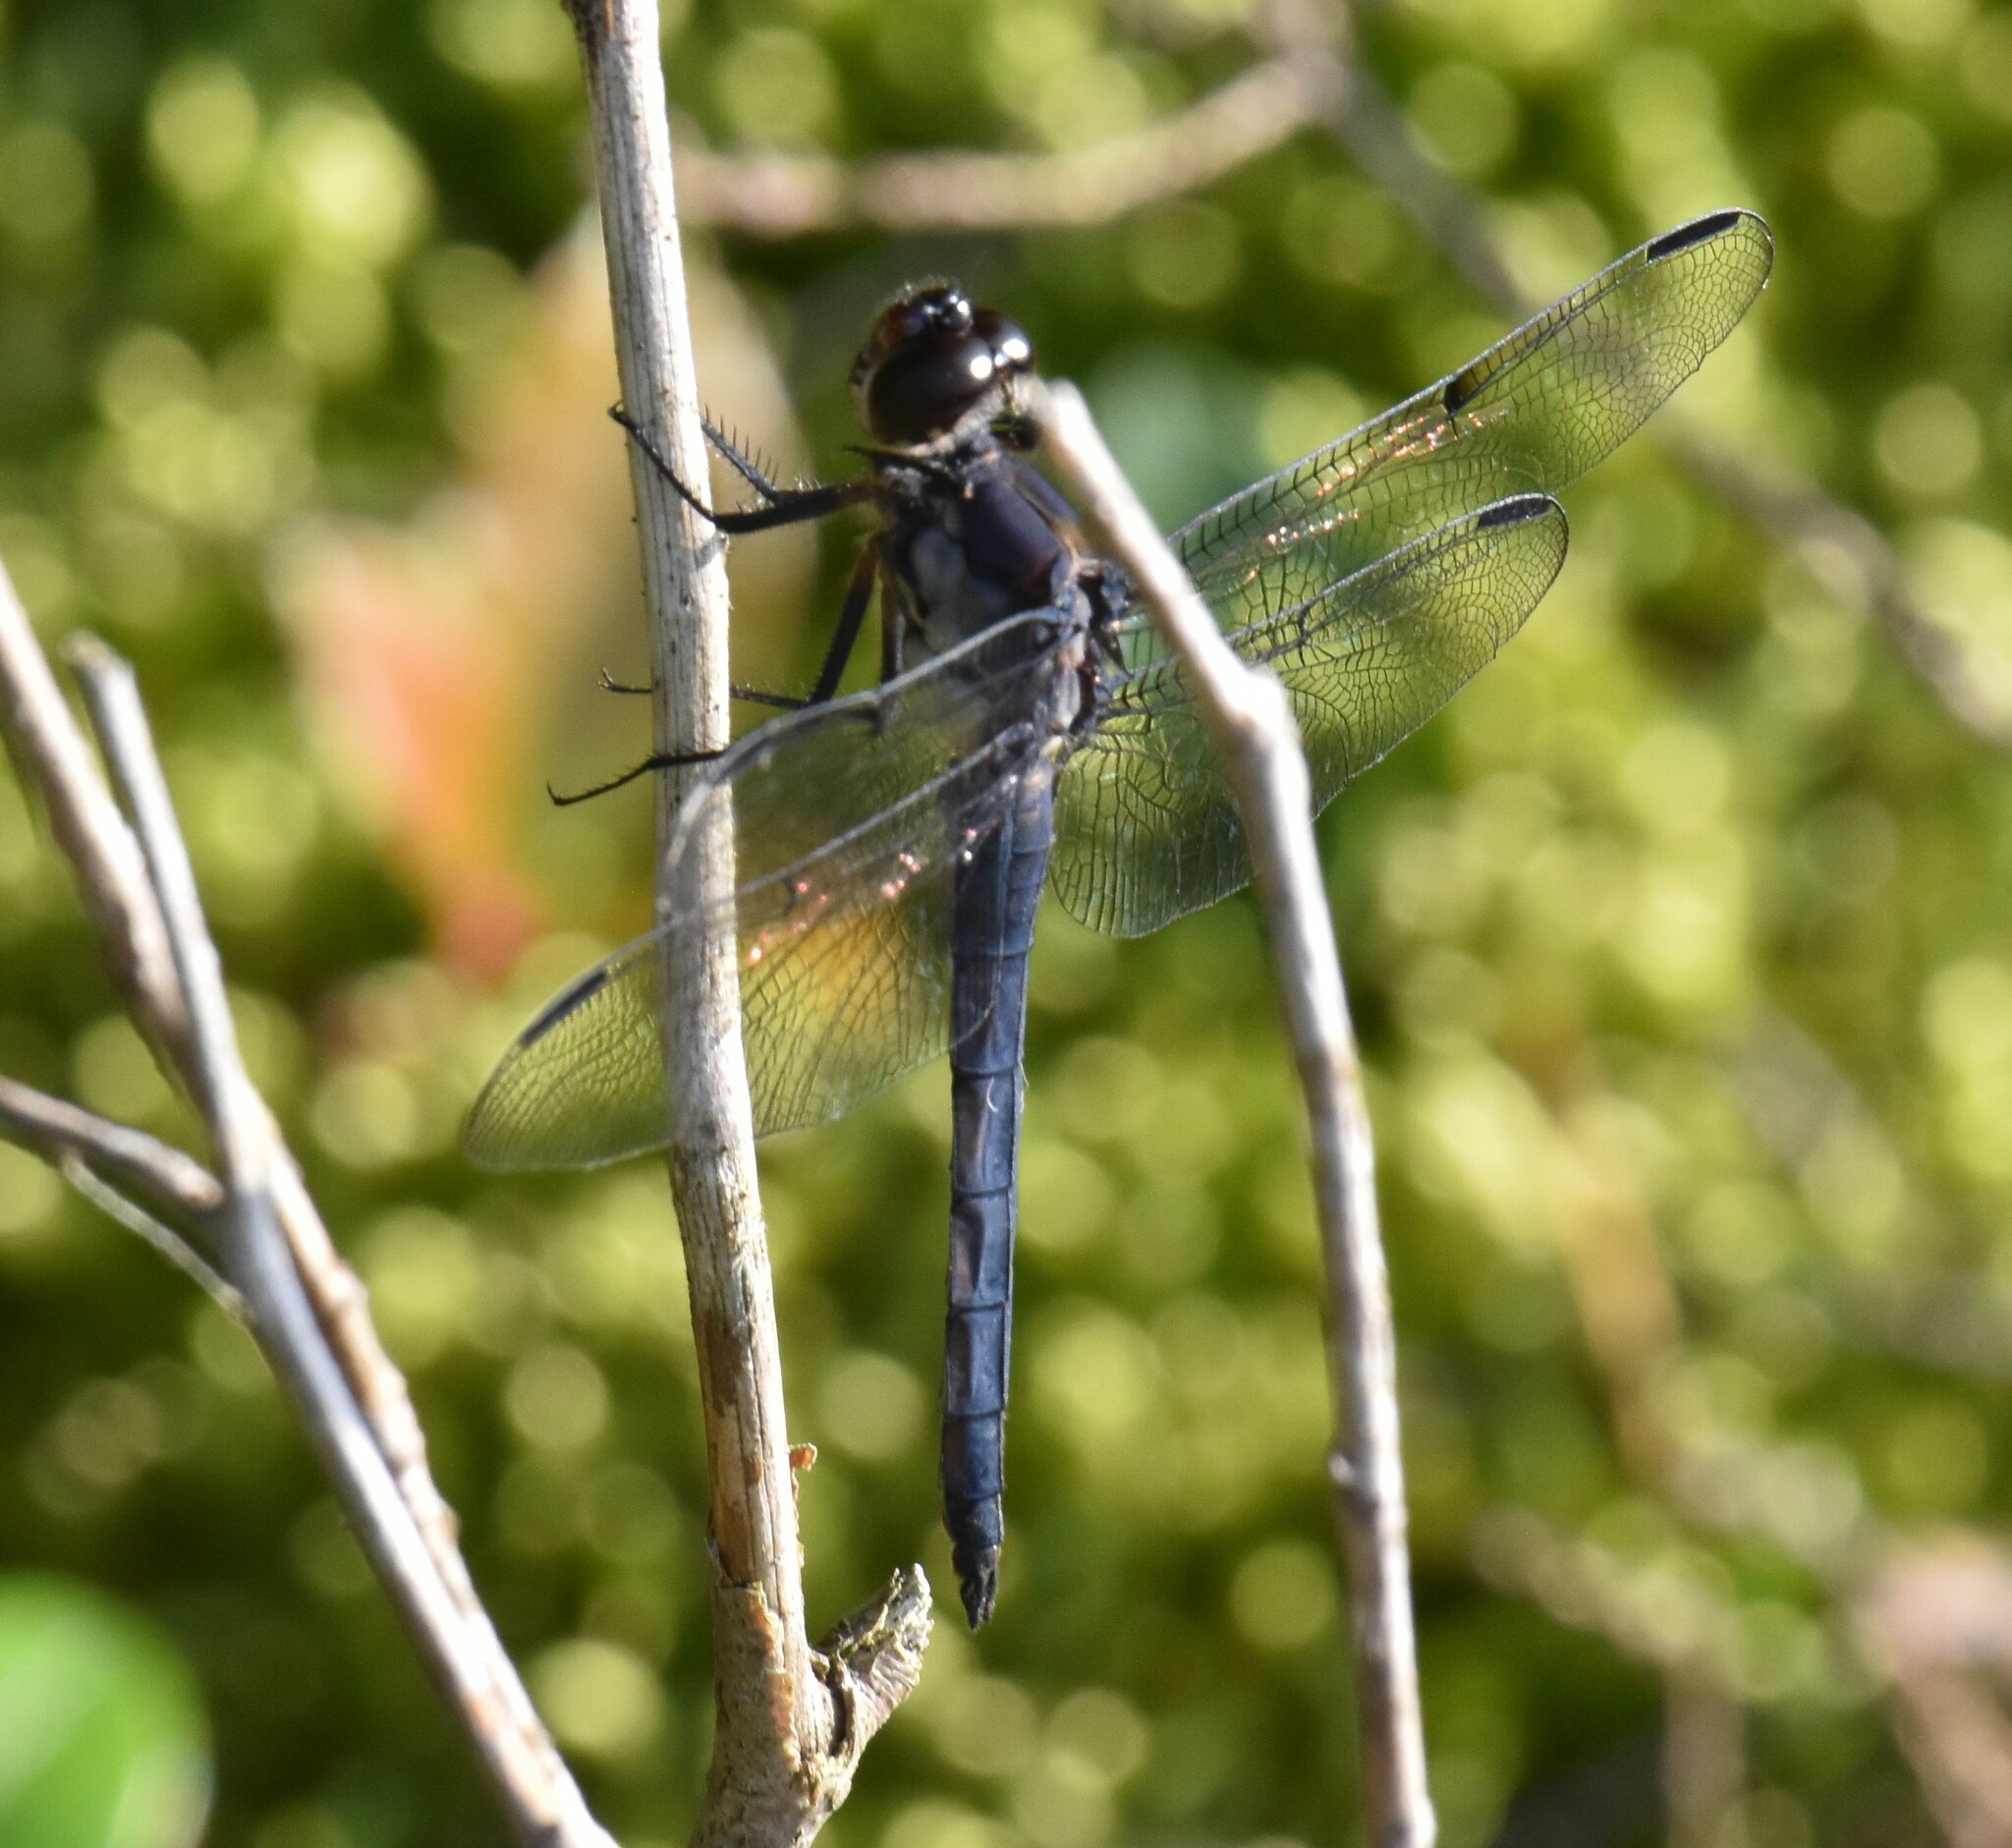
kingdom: Animalia
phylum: Arthropoda
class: Insecta
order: Odonata
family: Libellulidae
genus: Libellula
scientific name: Libellula incesta
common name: Slaty skimmer
